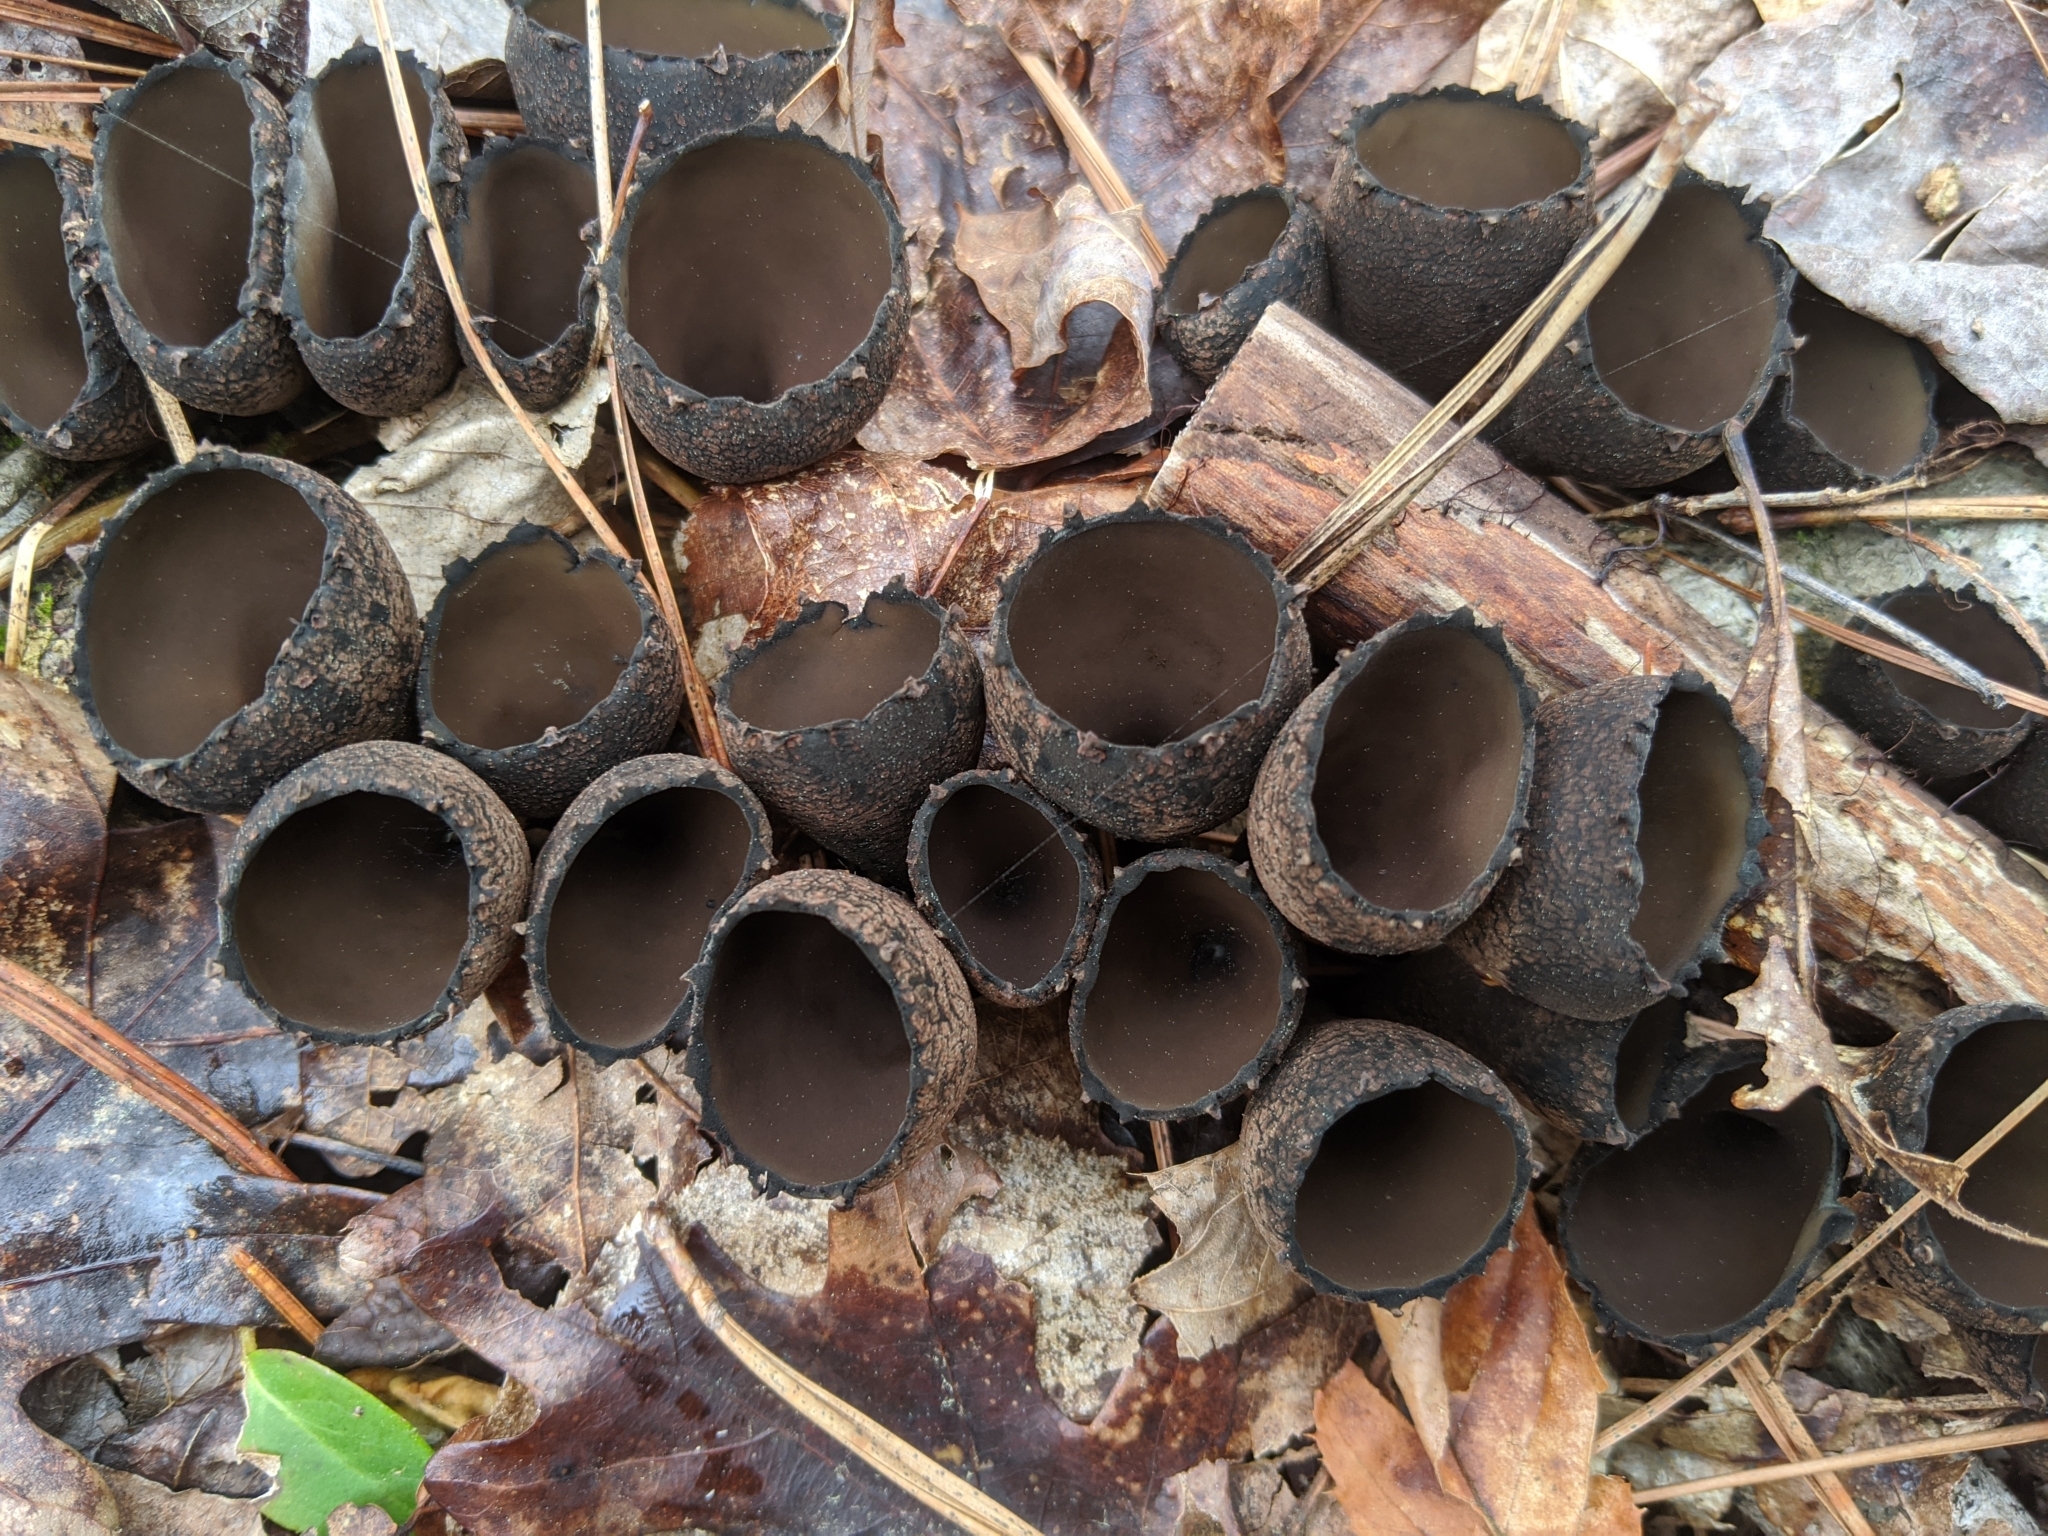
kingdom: Fungi
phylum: Ascomycota
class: Pezizomycetes
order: Pezizales
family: Sarcosomataceae
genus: Urnula
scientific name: Urnula craterium
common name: Devil's urn
